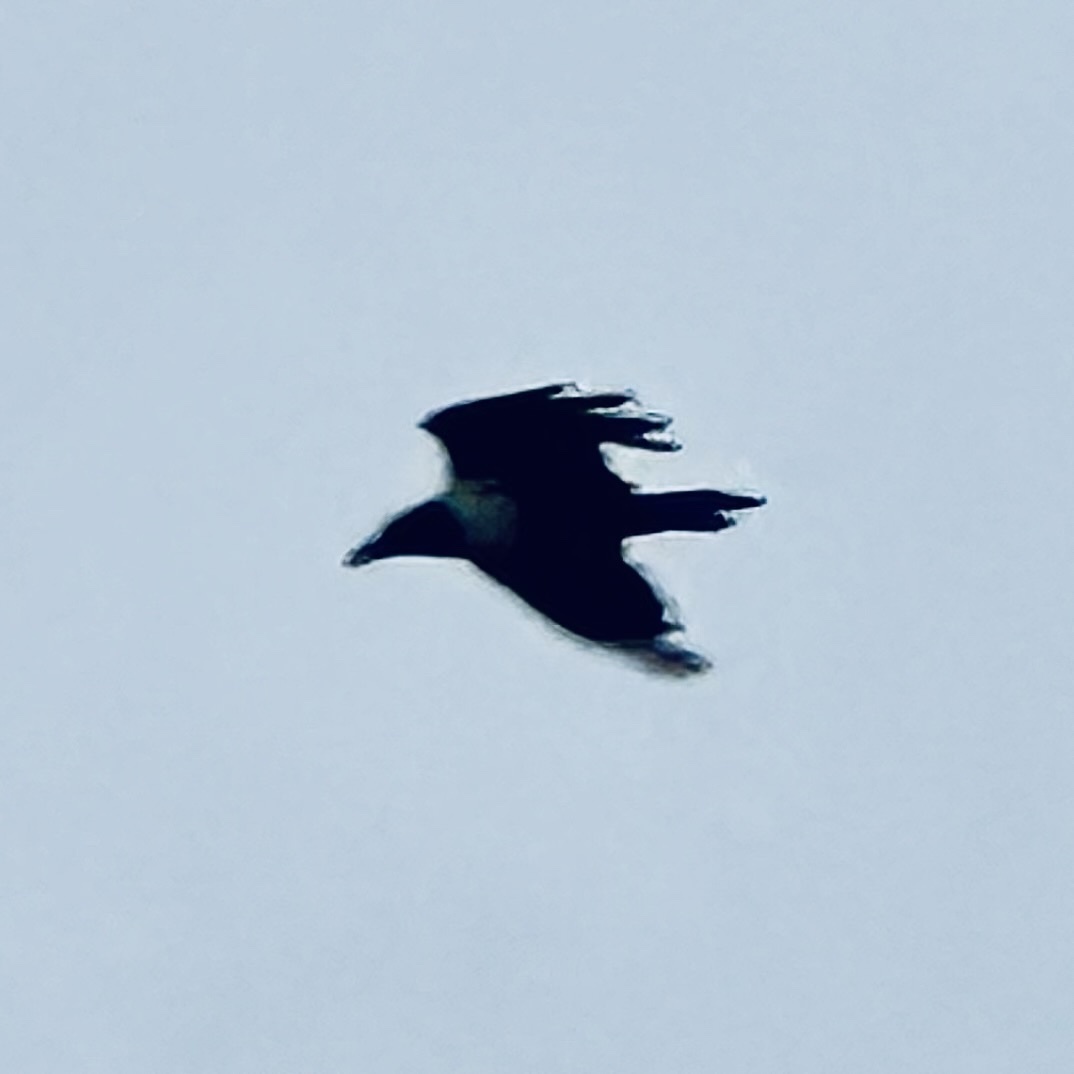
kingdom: Animalia
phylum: Chordata
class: Aves
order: Passeriformes
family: Corvidae
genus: Corvus
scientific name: Corvus albus
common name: Pied crow
